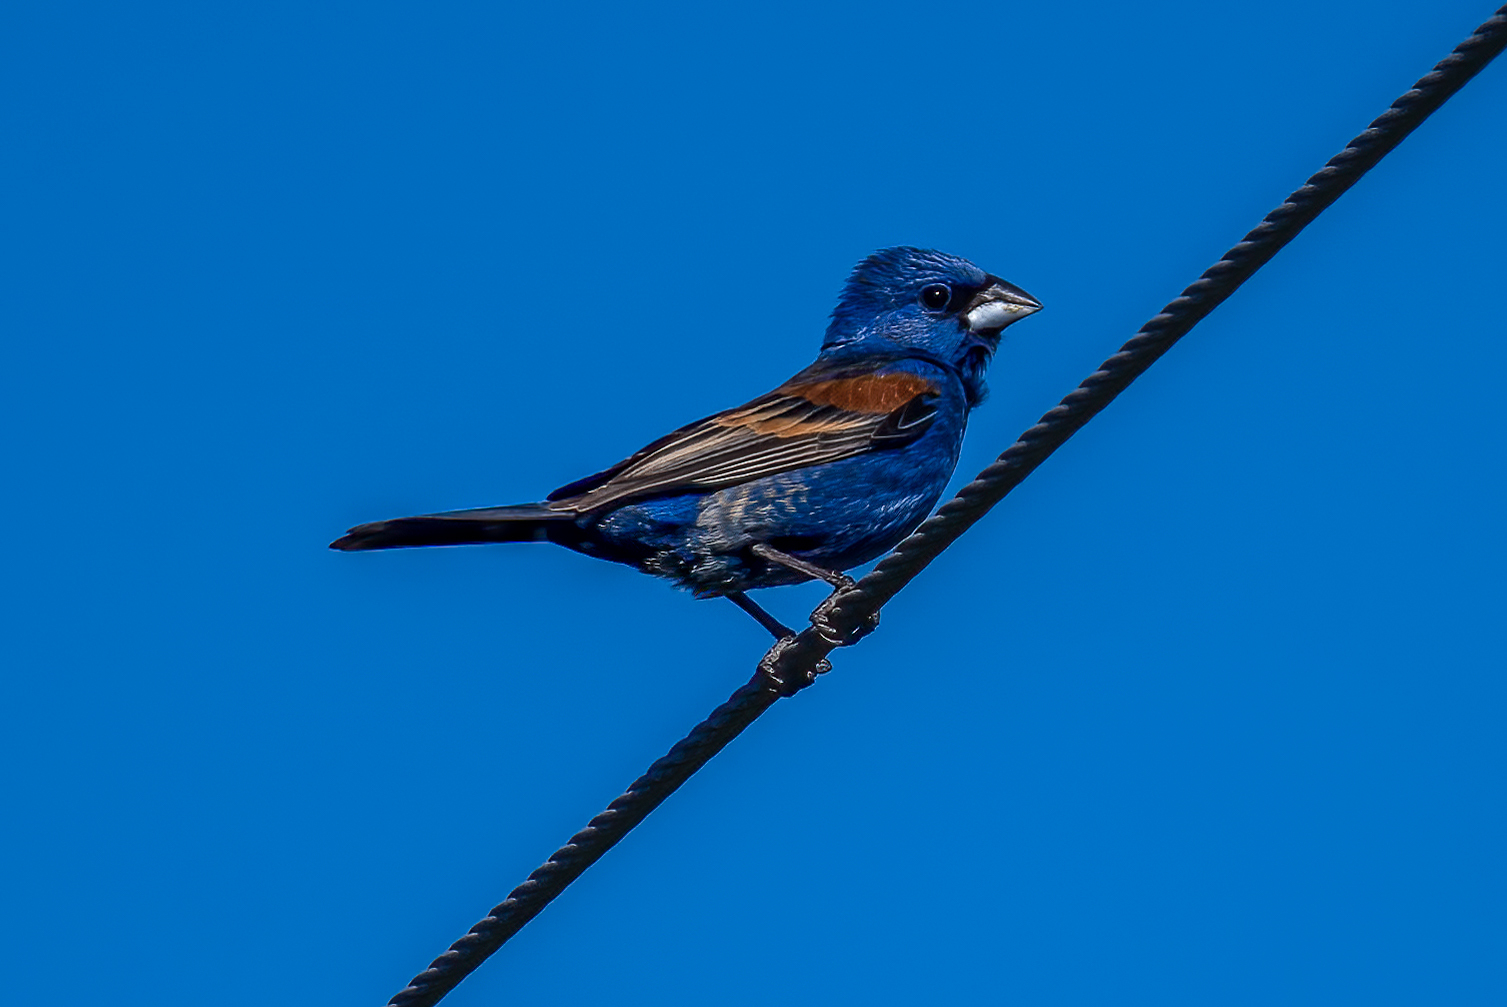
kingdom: Animalia
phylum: Chordata
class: Aves
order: Passeriformes
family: Cardinalidae
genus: Passerina
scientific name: Passerina caerulea
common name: Blue grosbeak
